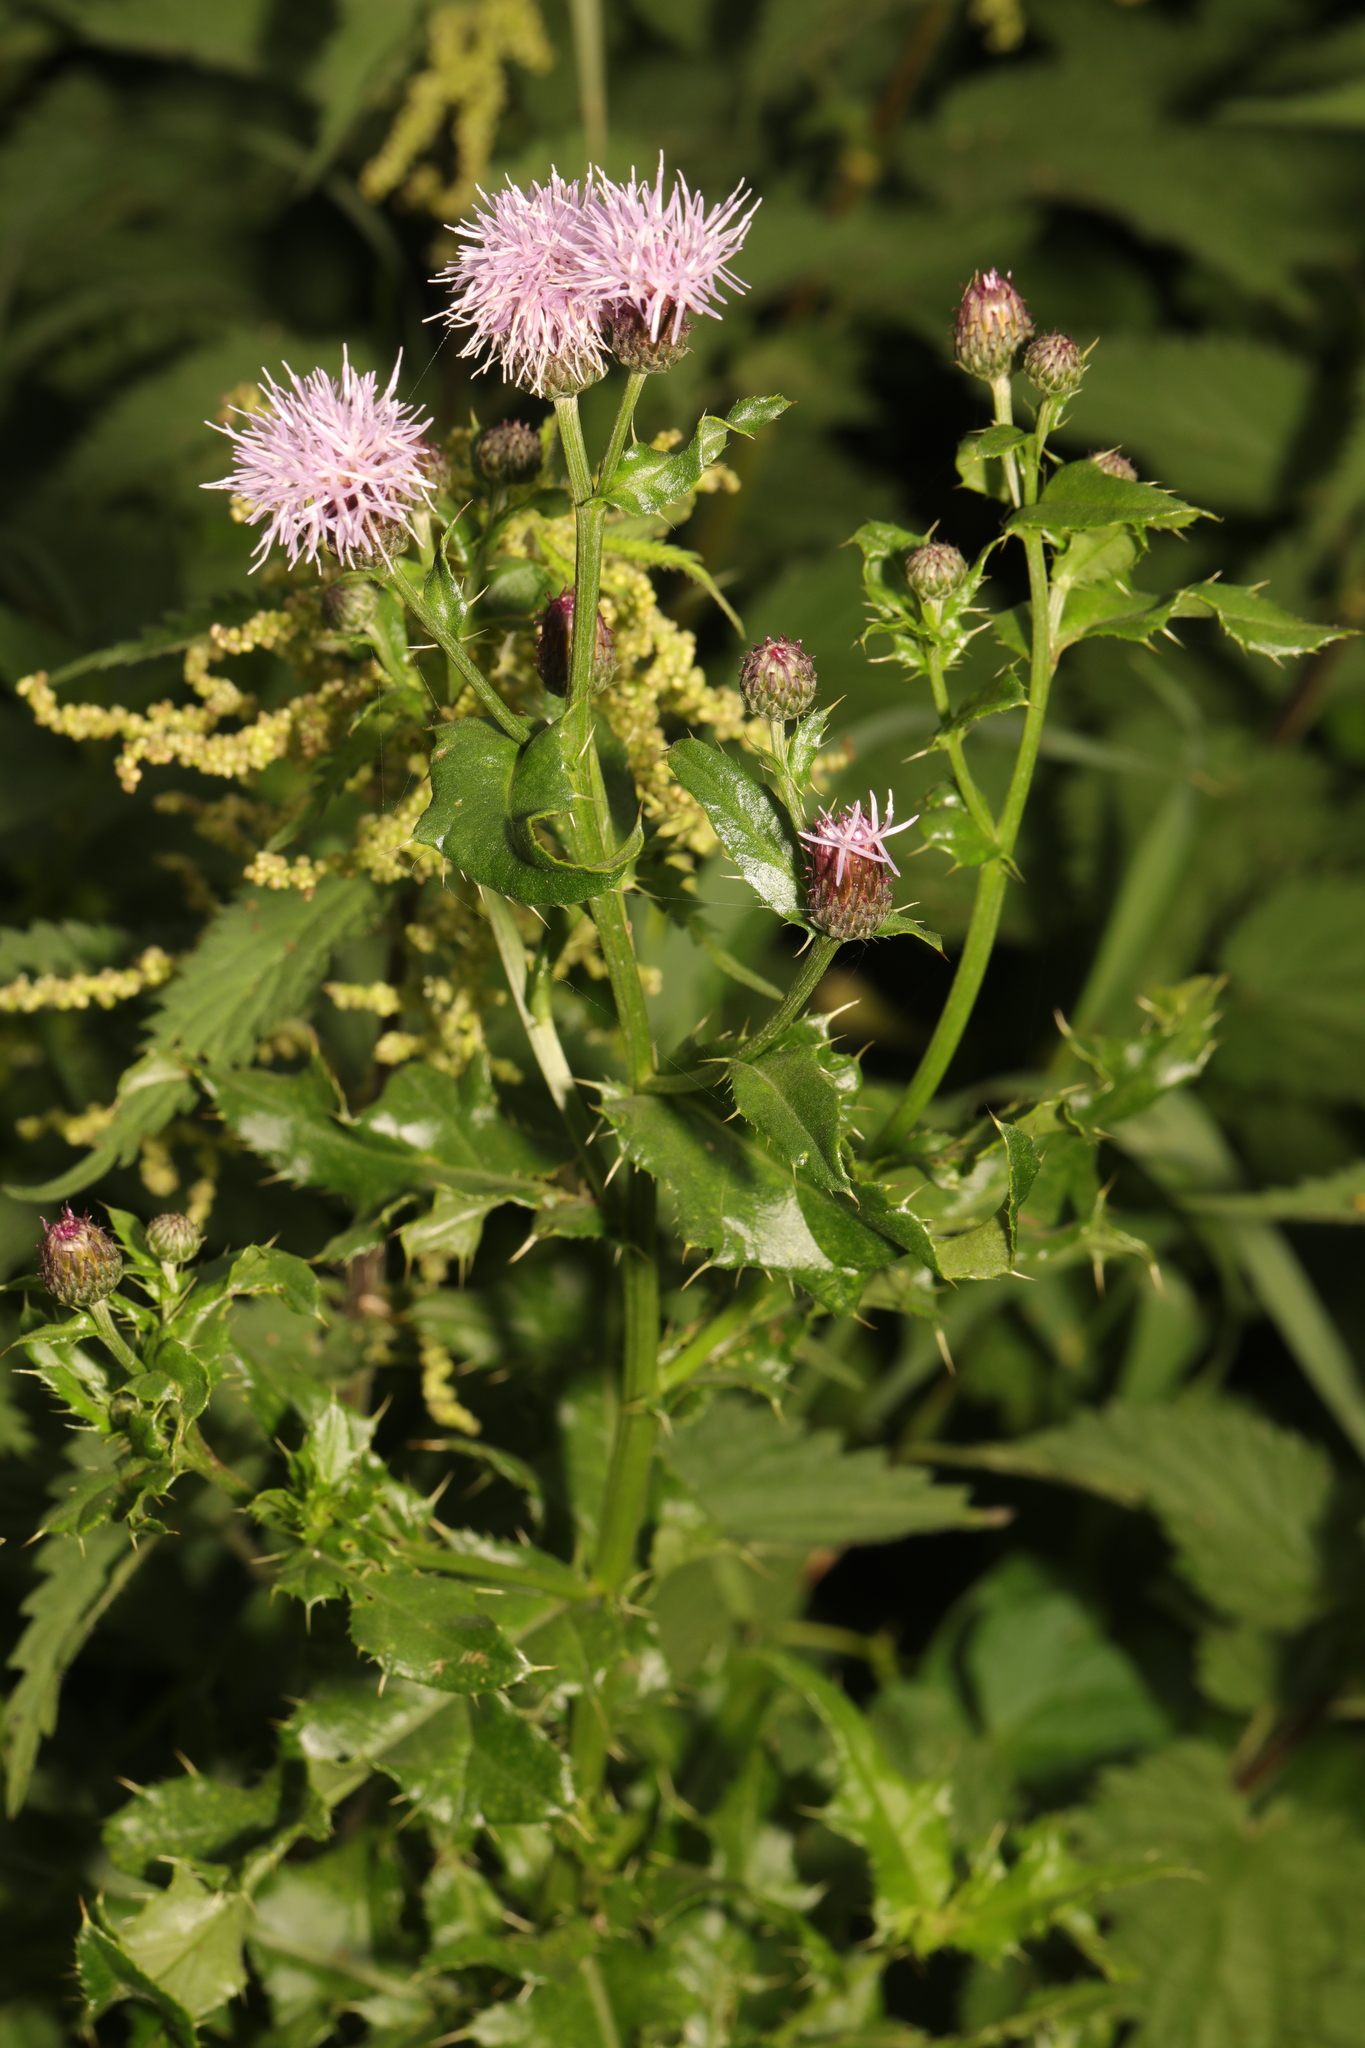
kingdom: Plantae
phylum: Tracheophyta
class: Magnoliopsida
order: Asterales
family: Asteraceae
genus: Cirsium
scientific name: Cirsium arvense
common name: Creeping thistle
